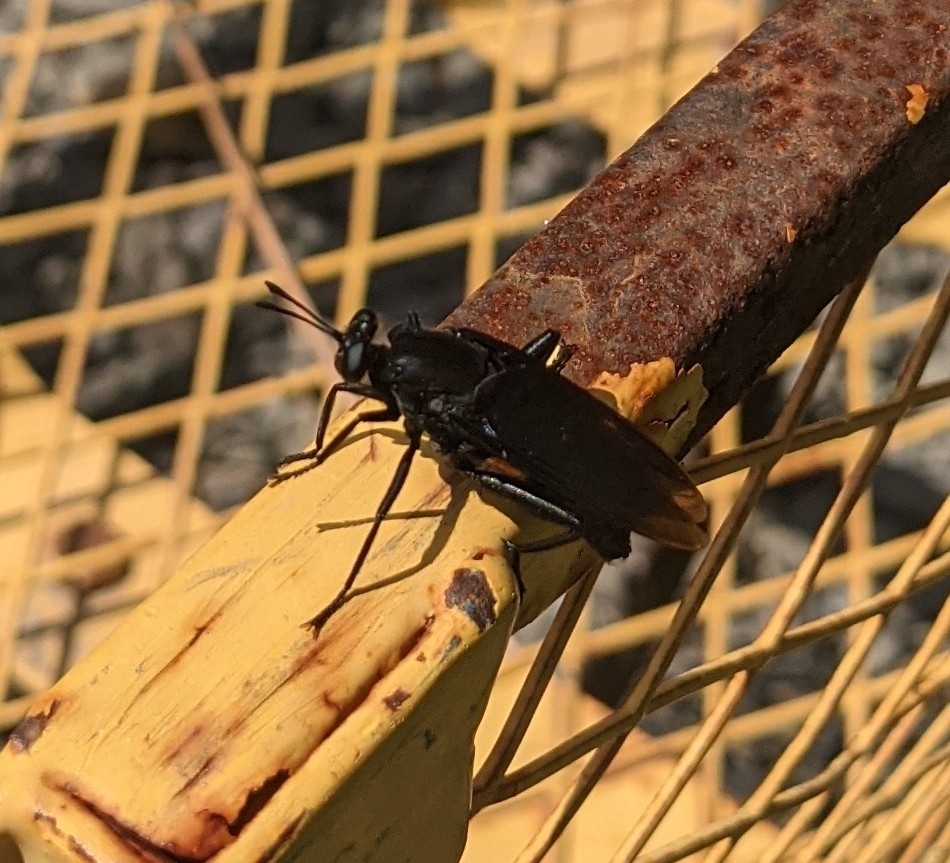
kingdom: Animalia
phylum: Arthropoda
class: Insecta
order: Diptera
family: Mydidae
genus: Mydas
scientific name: Mydas clavatus
